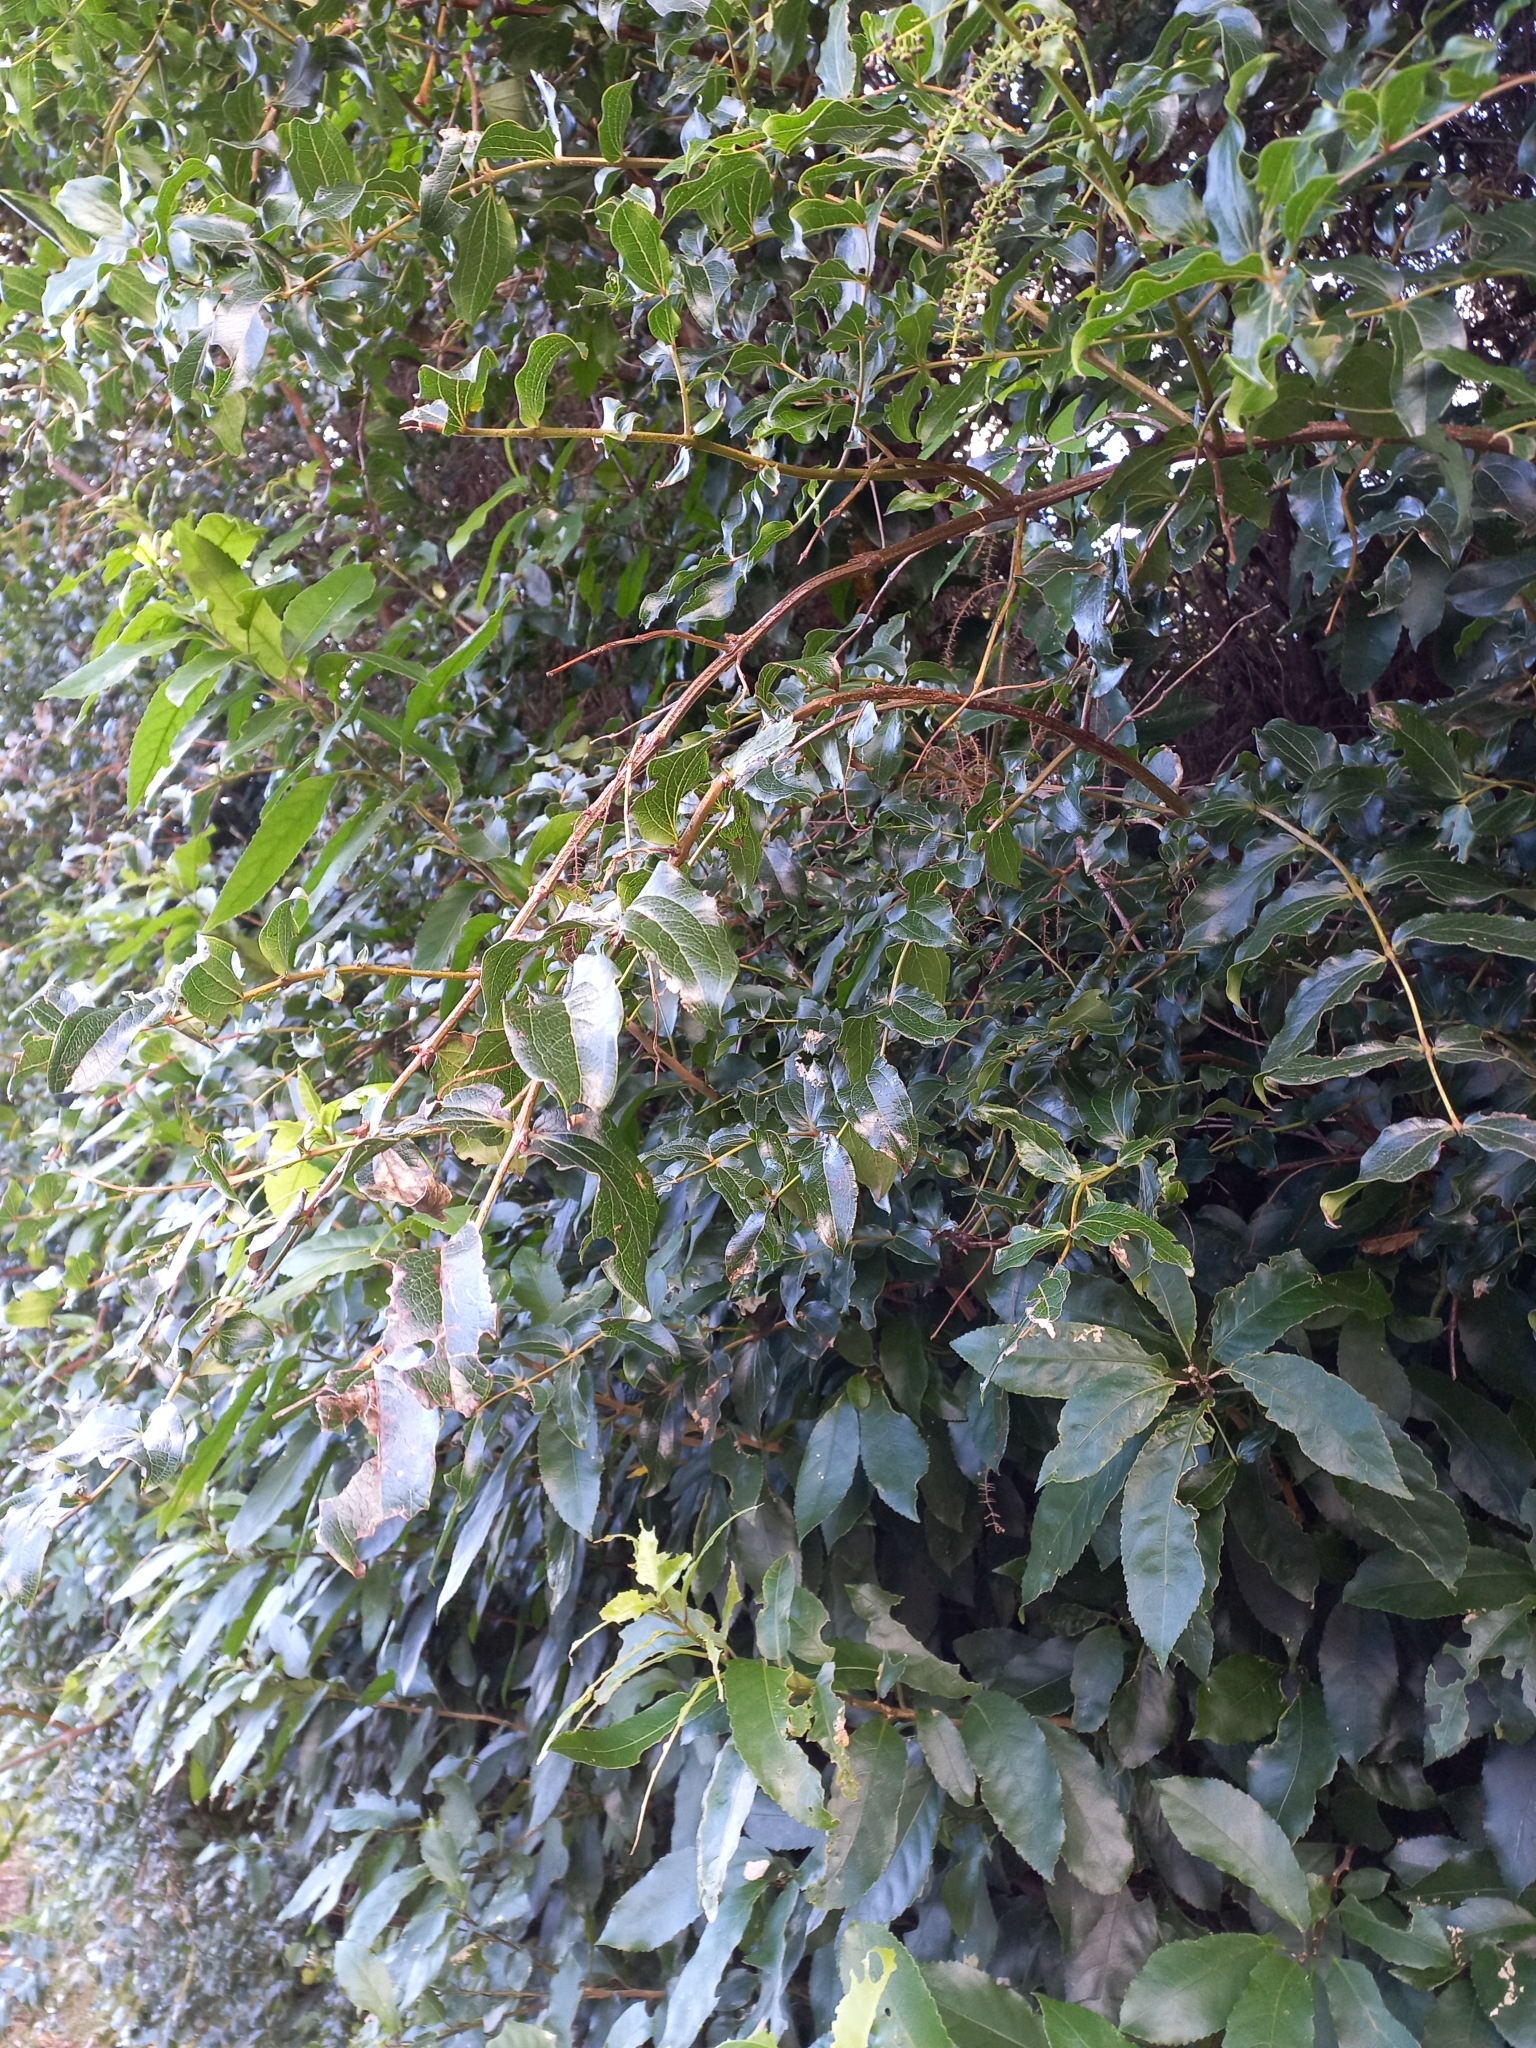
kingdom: Plantae
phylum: Tracheophyta
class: Magnoliopsida
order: Cucurbitales
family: Coriariaceae
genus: Coriaria
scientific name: Coriaria arborea
